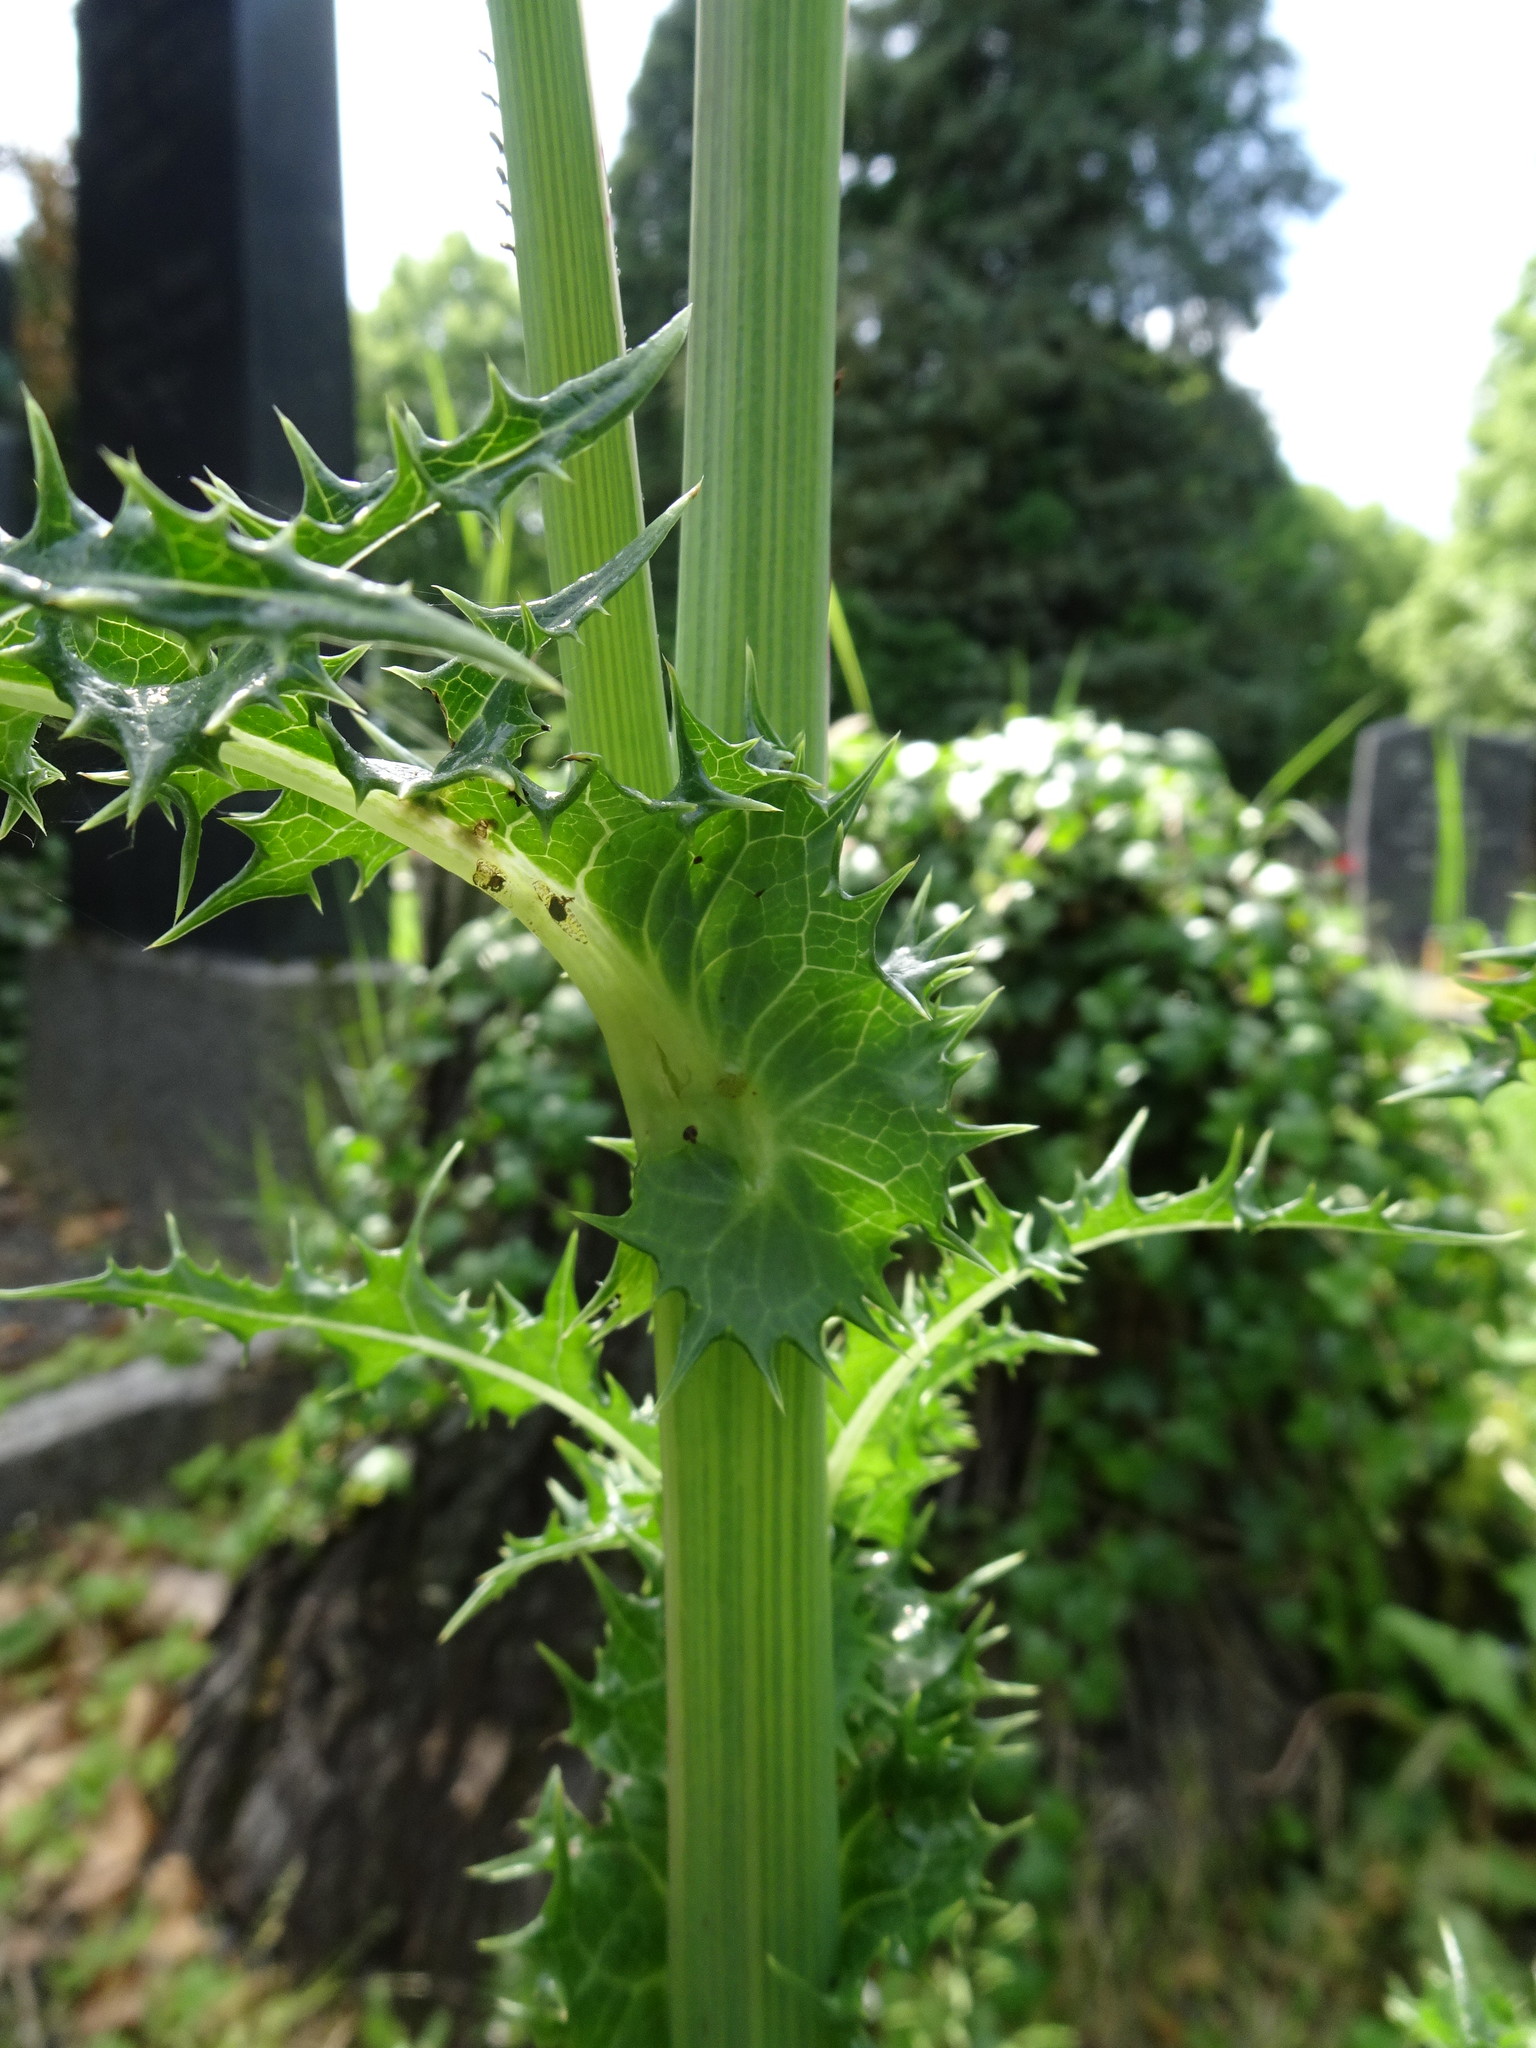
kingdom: Plantae
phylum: Tracheophyta
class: Magnoliopsida
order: Asterales
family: Asteraceae
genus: Sonchus
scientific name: Sonchus asper
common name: Prickly sow-thistle
